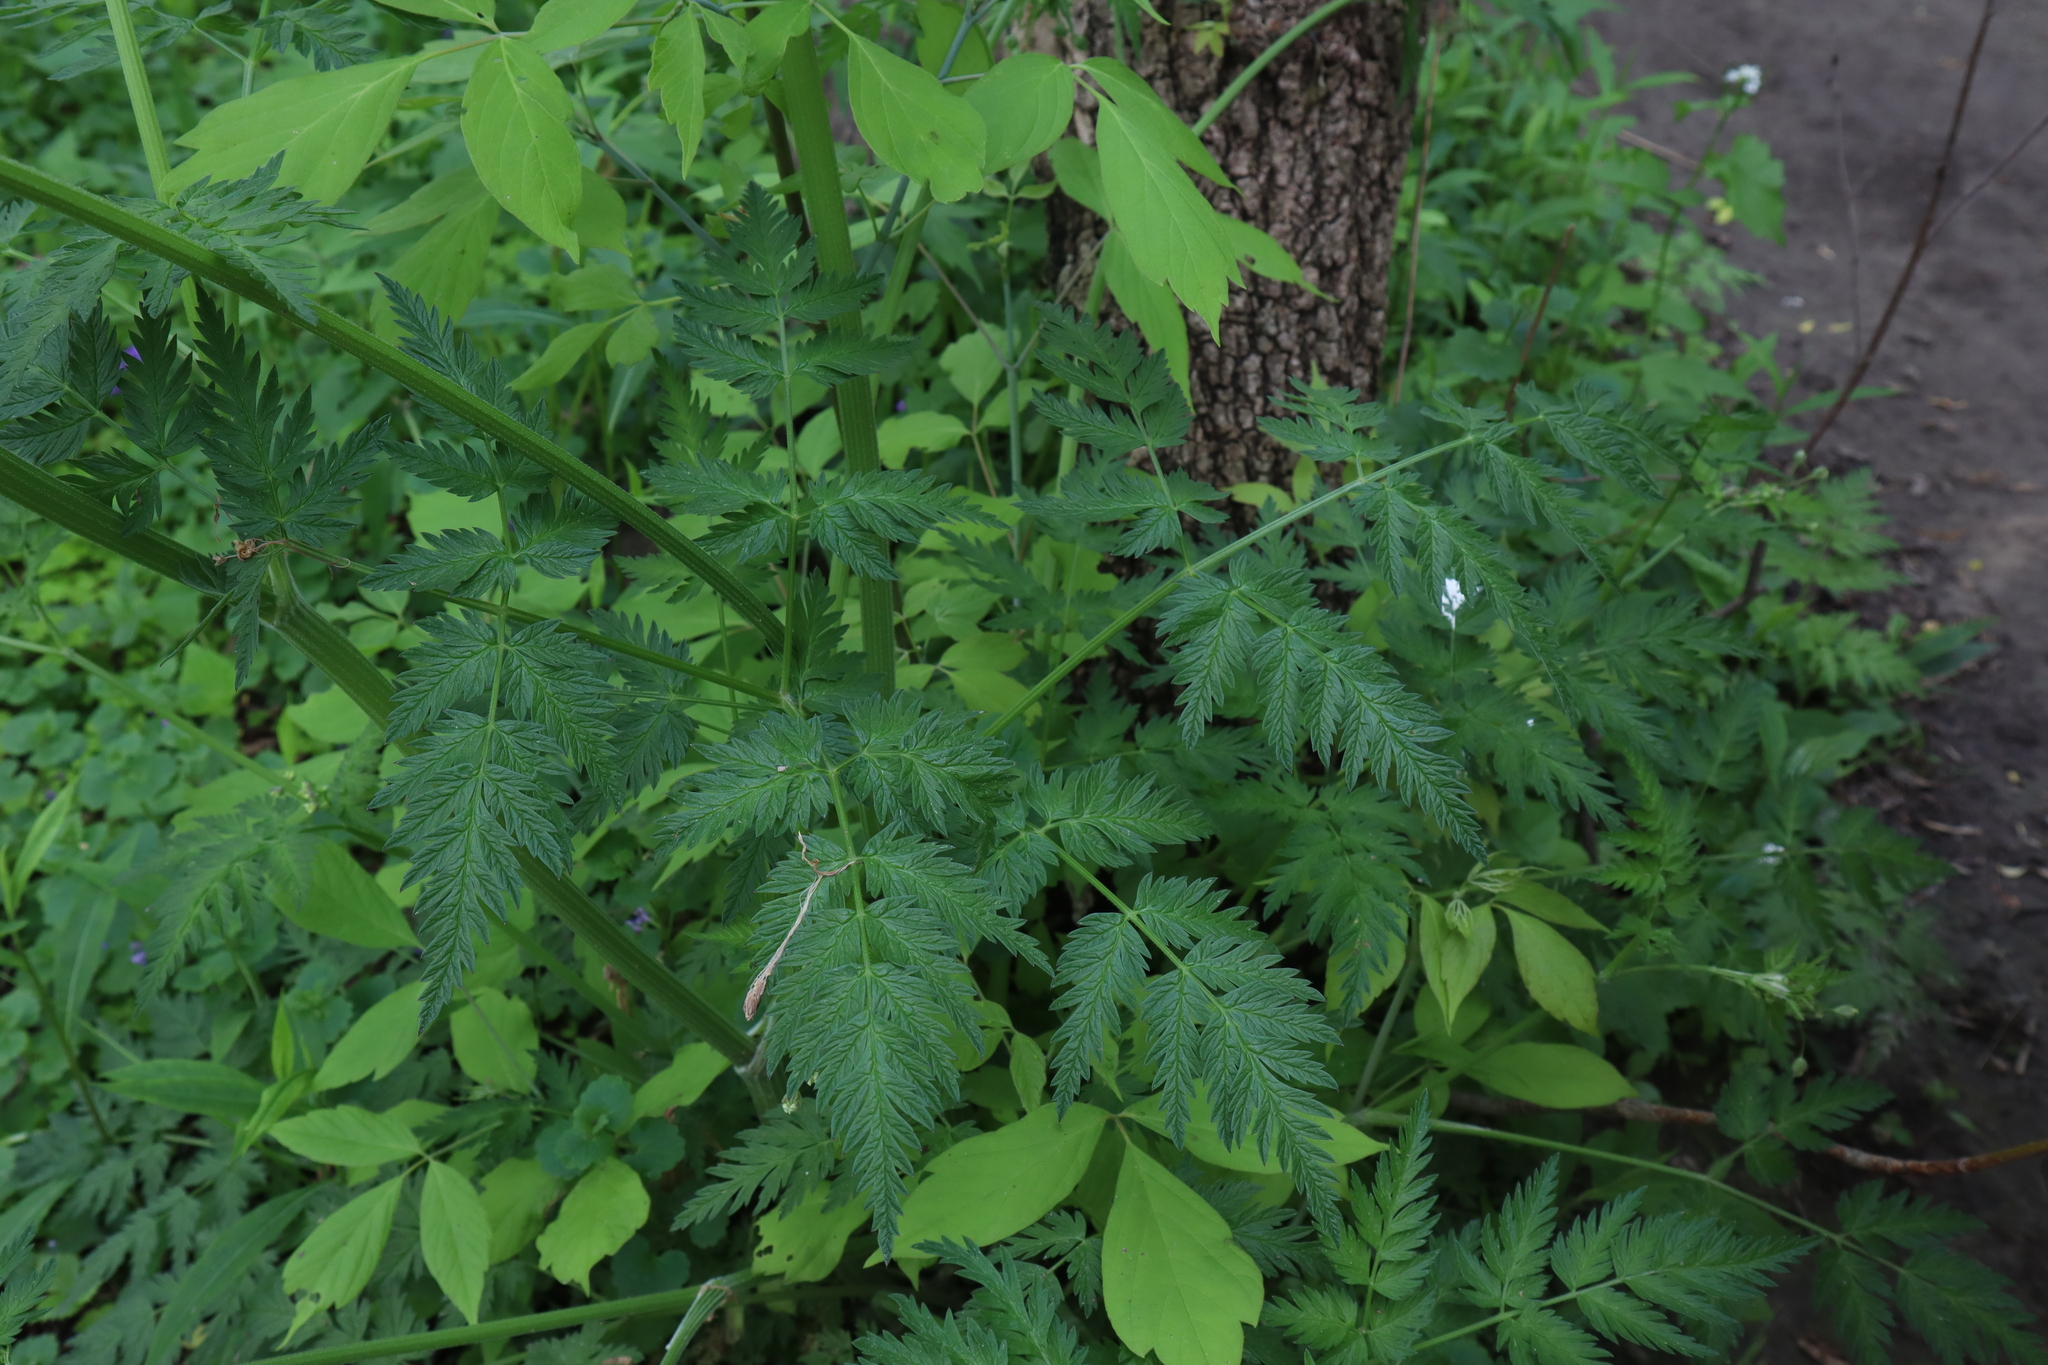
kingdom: Plantae
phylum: Tracheophyta
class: Magnoliopsida
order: Apiales
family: Apiaceae
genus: Anthriscus
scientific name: Anthriscus sylvestris
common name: Cow parsley
